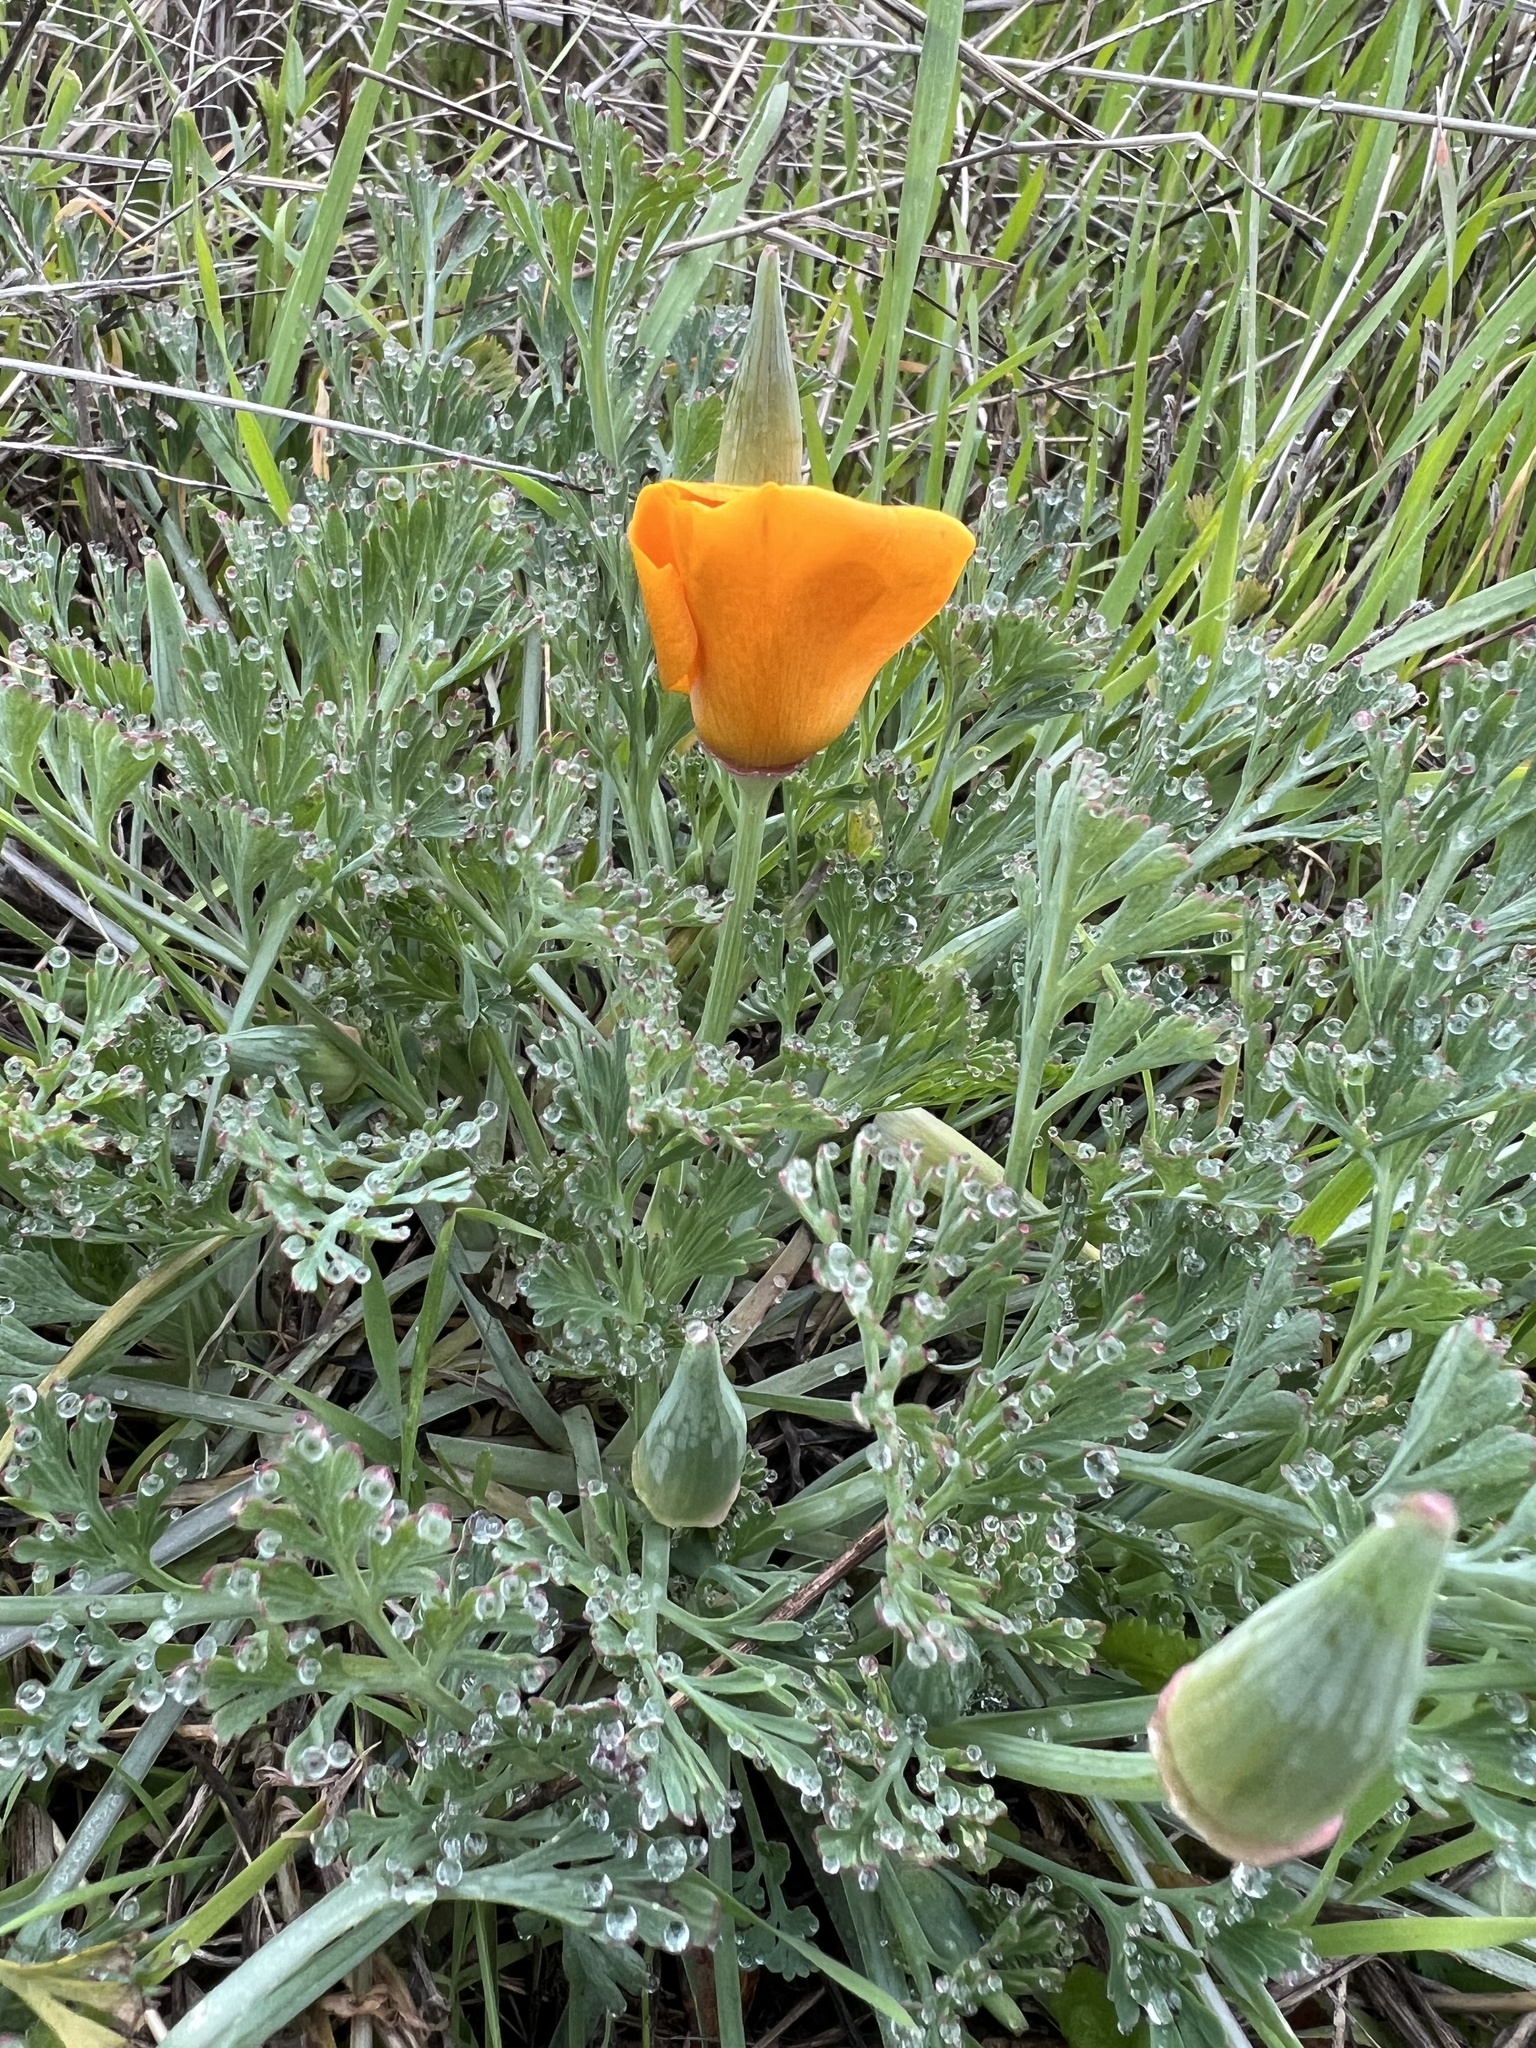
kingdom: Plantae
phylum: Tracheophyta
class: Magnoliopsida
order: Ranunculales
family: Papaveraceae
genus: Eschscholzia
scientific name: Eschscholzia californica
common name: California poppy
